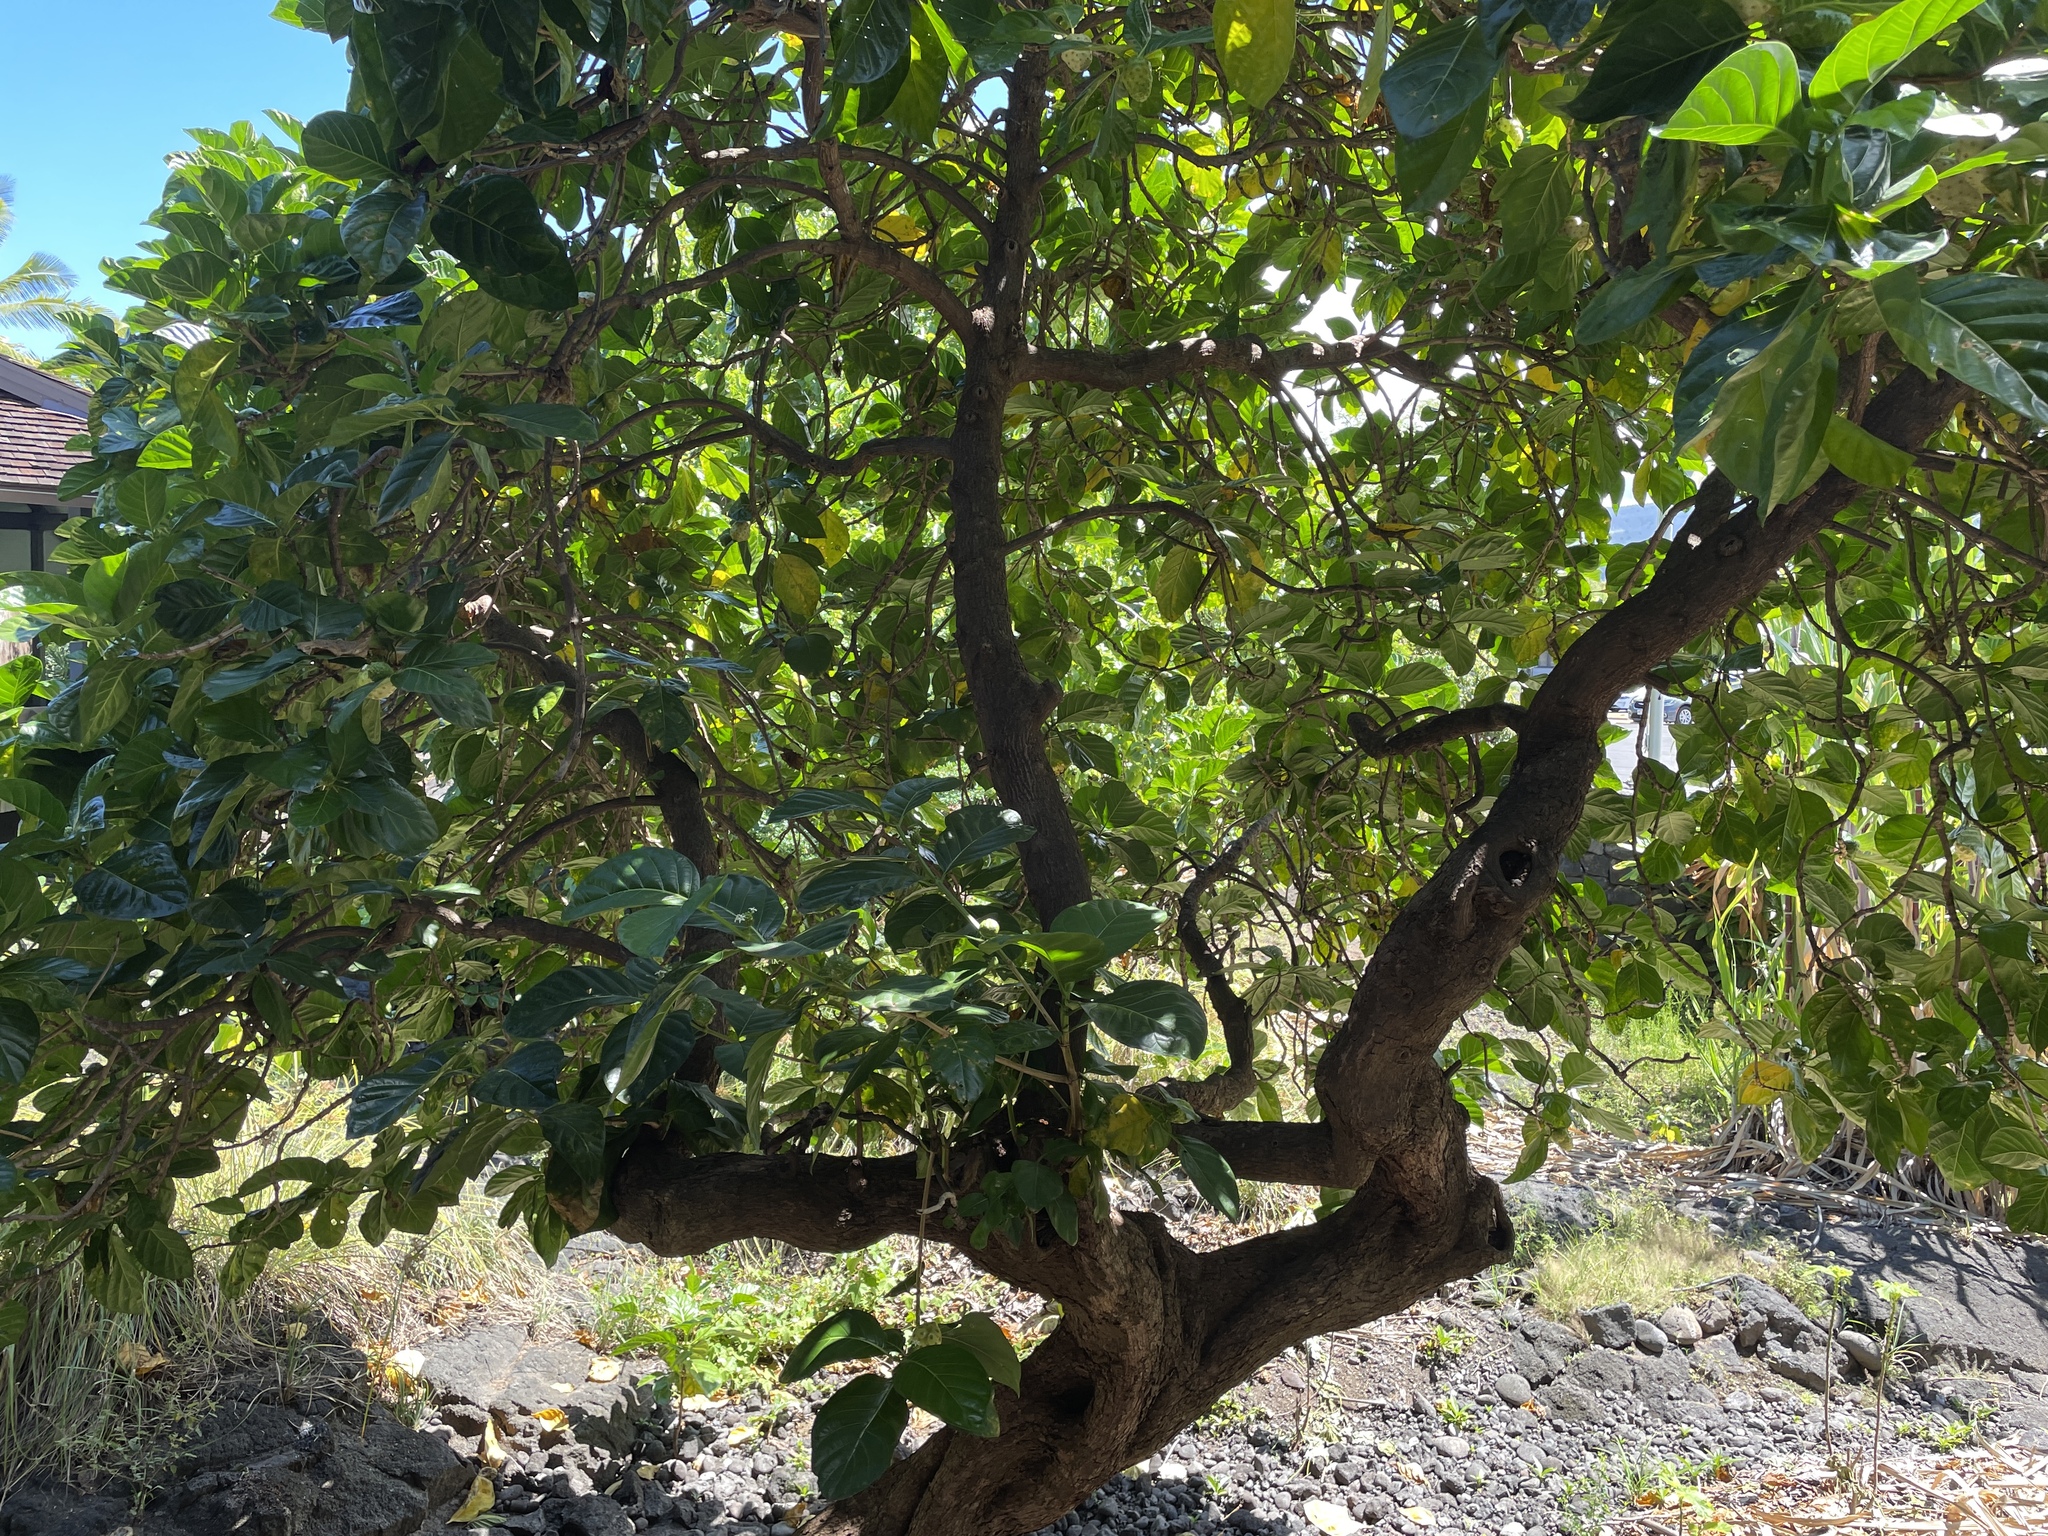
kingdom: Plantae
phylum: Tracheophyta
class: Magnoliopsida
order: Gentianales
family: Rubiaceae
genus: Morinda
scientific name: Morinda citrifolia
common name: Indian-mulberry
